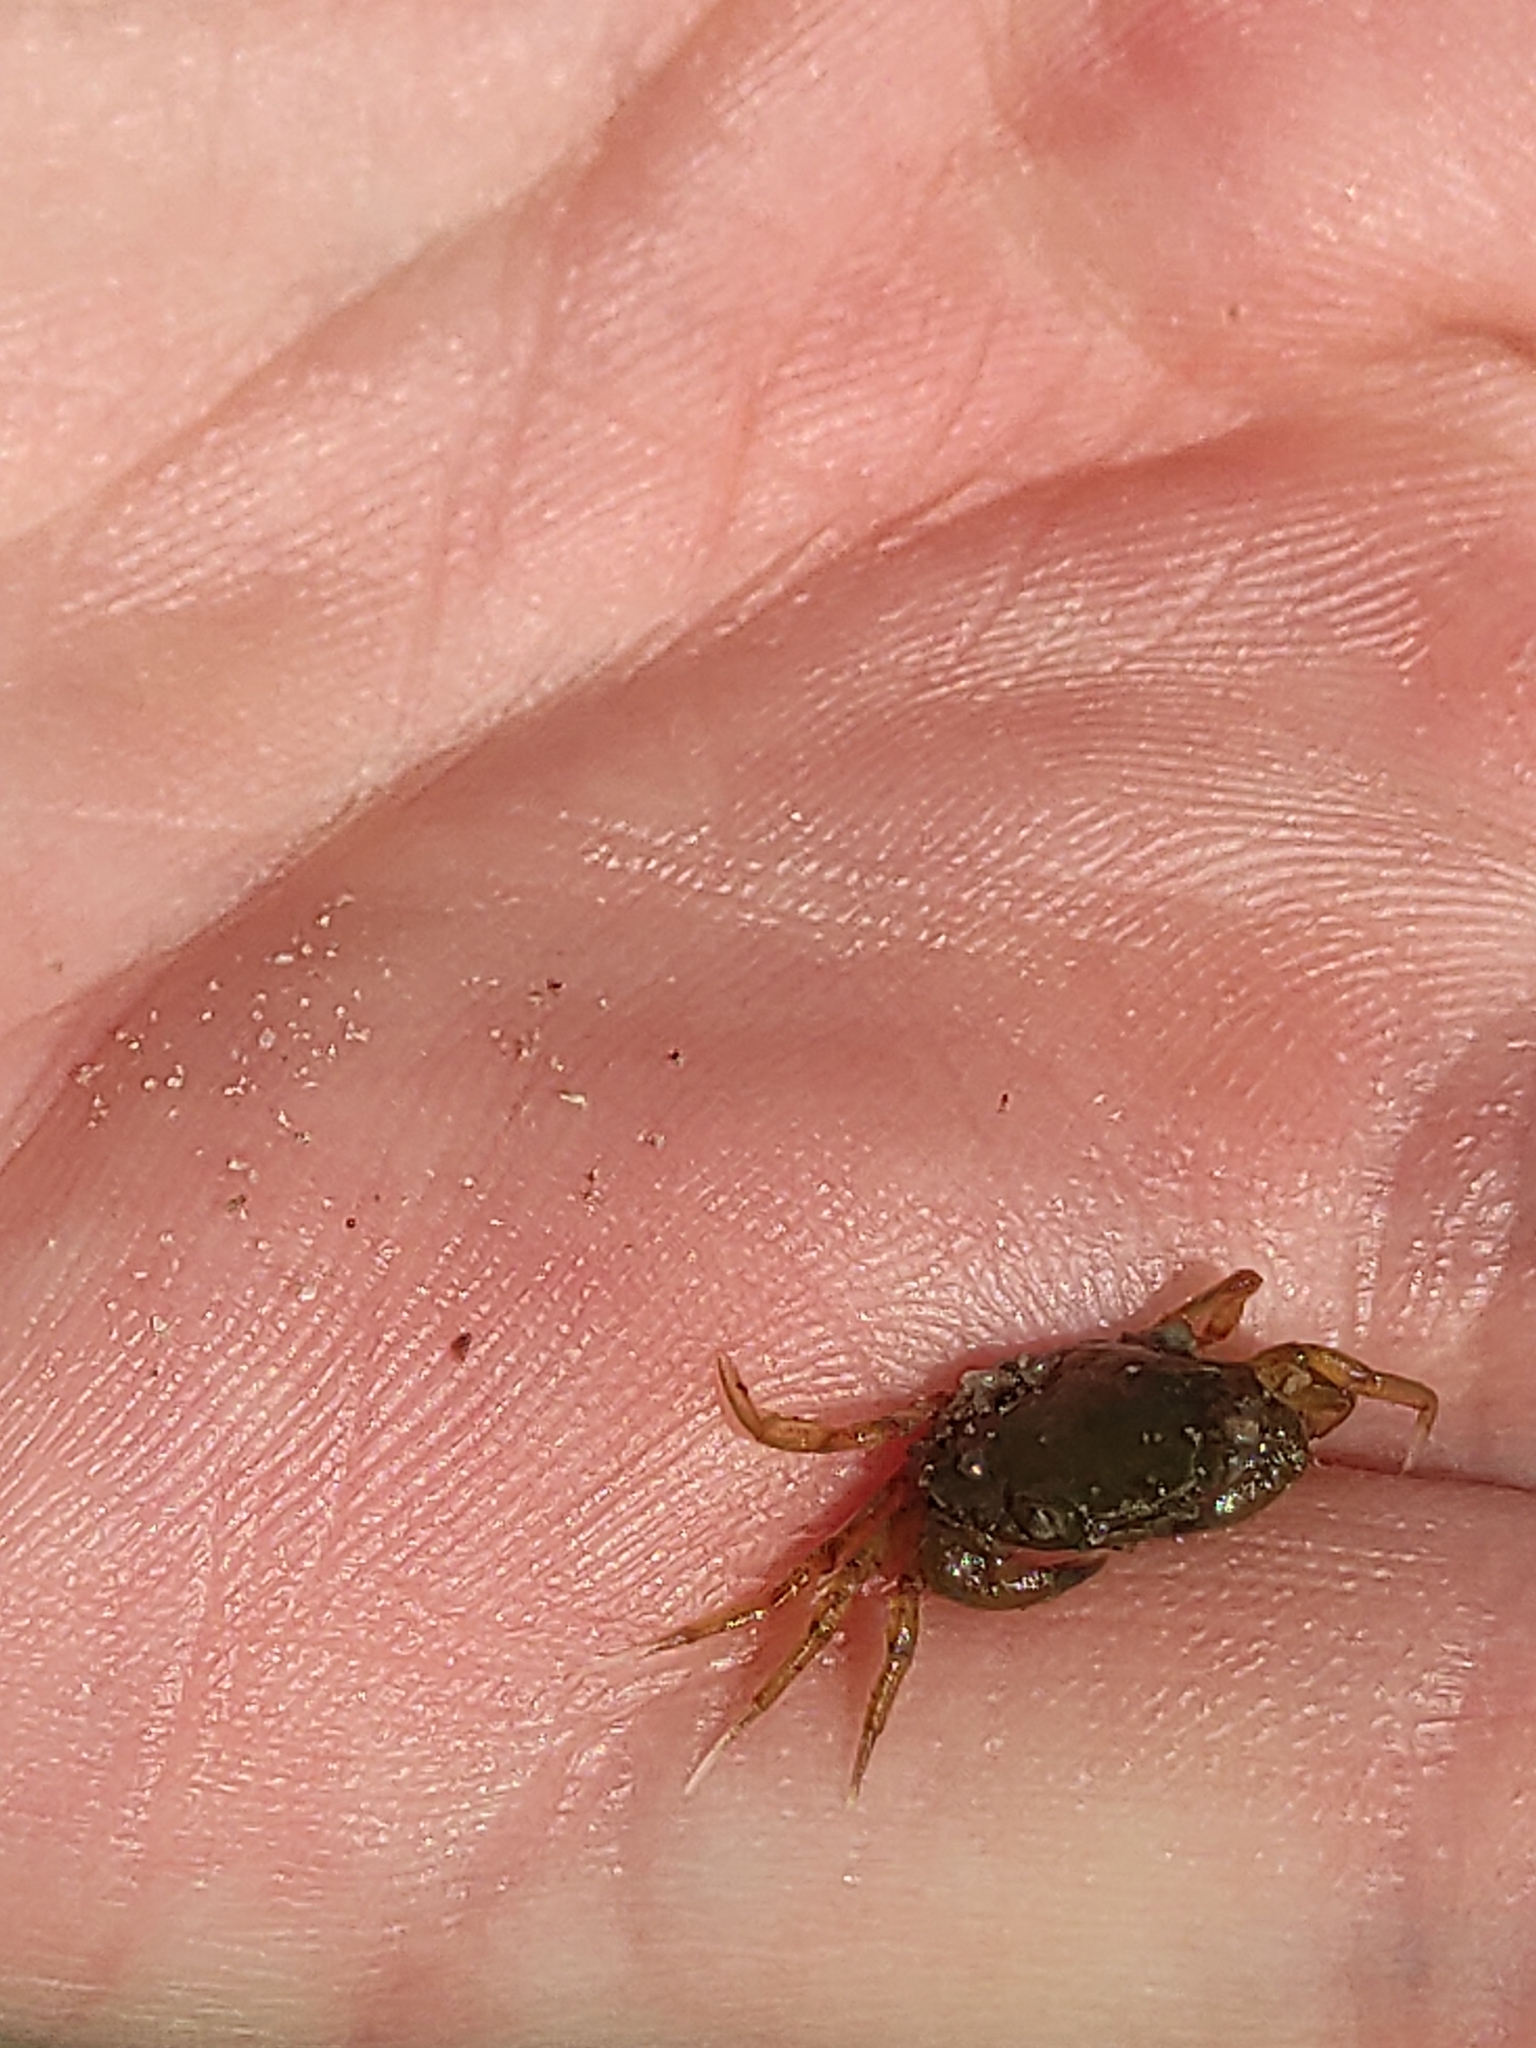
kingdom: Animalia
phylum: Arthropoda
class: Malacostraca
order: Decapoda
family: Carcinidae
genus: Carcinus
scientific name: Carcinus maenas
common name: European green crab
